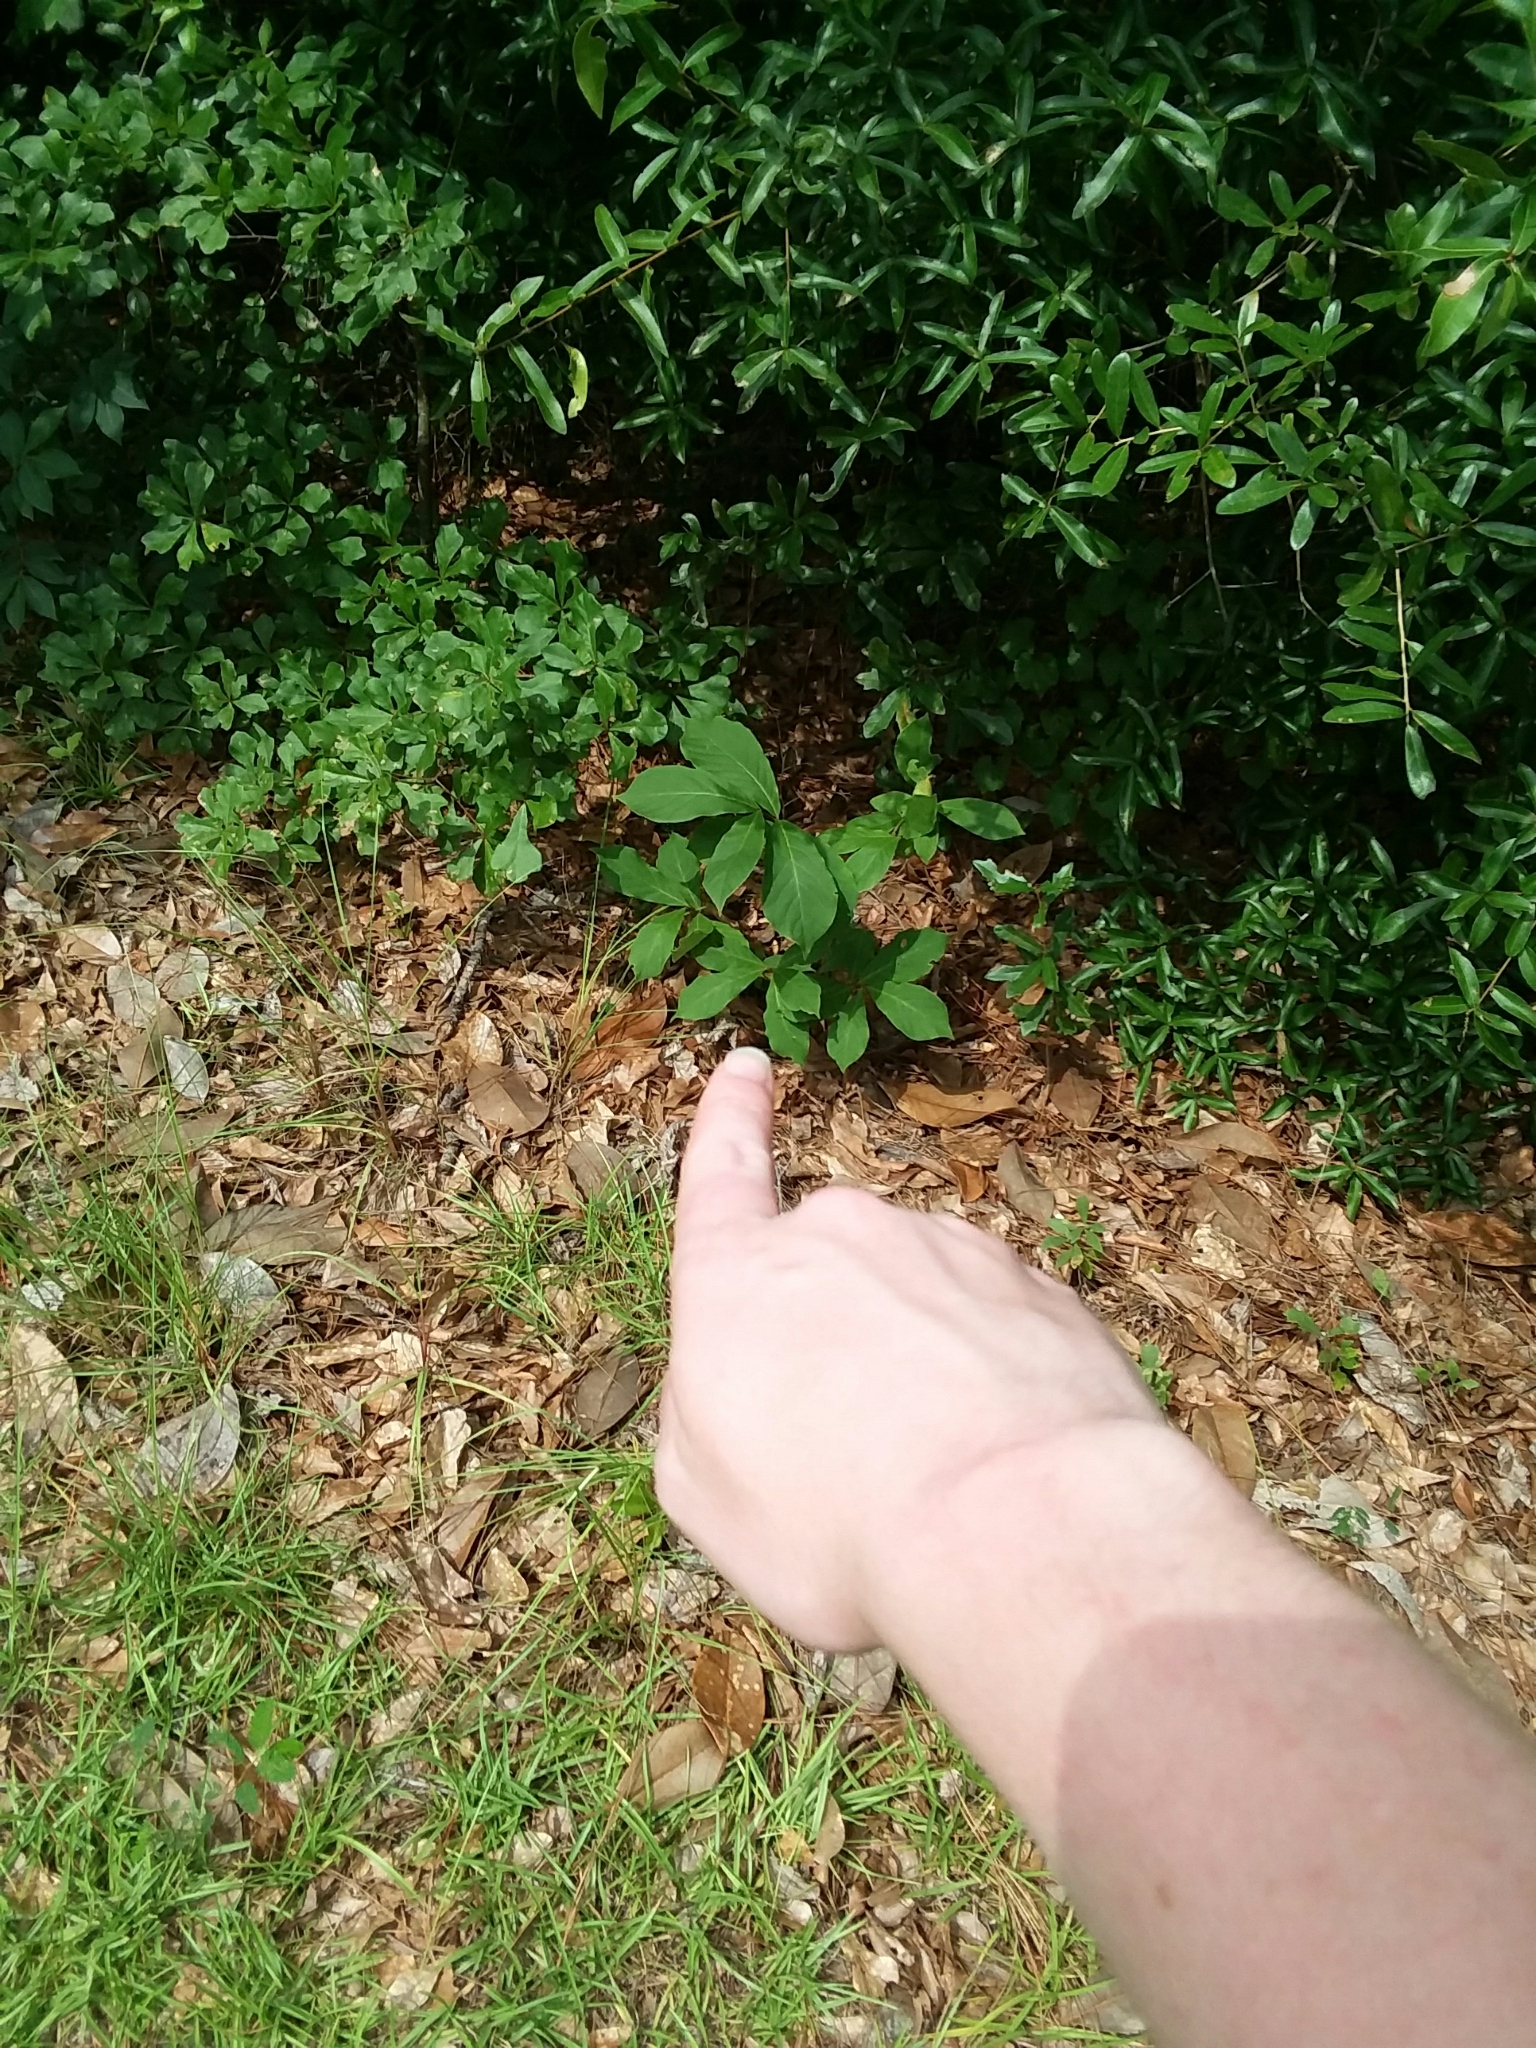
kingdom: Plantae
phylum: Tracheophyta
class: Magnoliopsida
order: Magnoliales
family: Annonaceae
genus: Asimina
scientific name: Asimina parviflora
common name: Dwarf pawpaw
